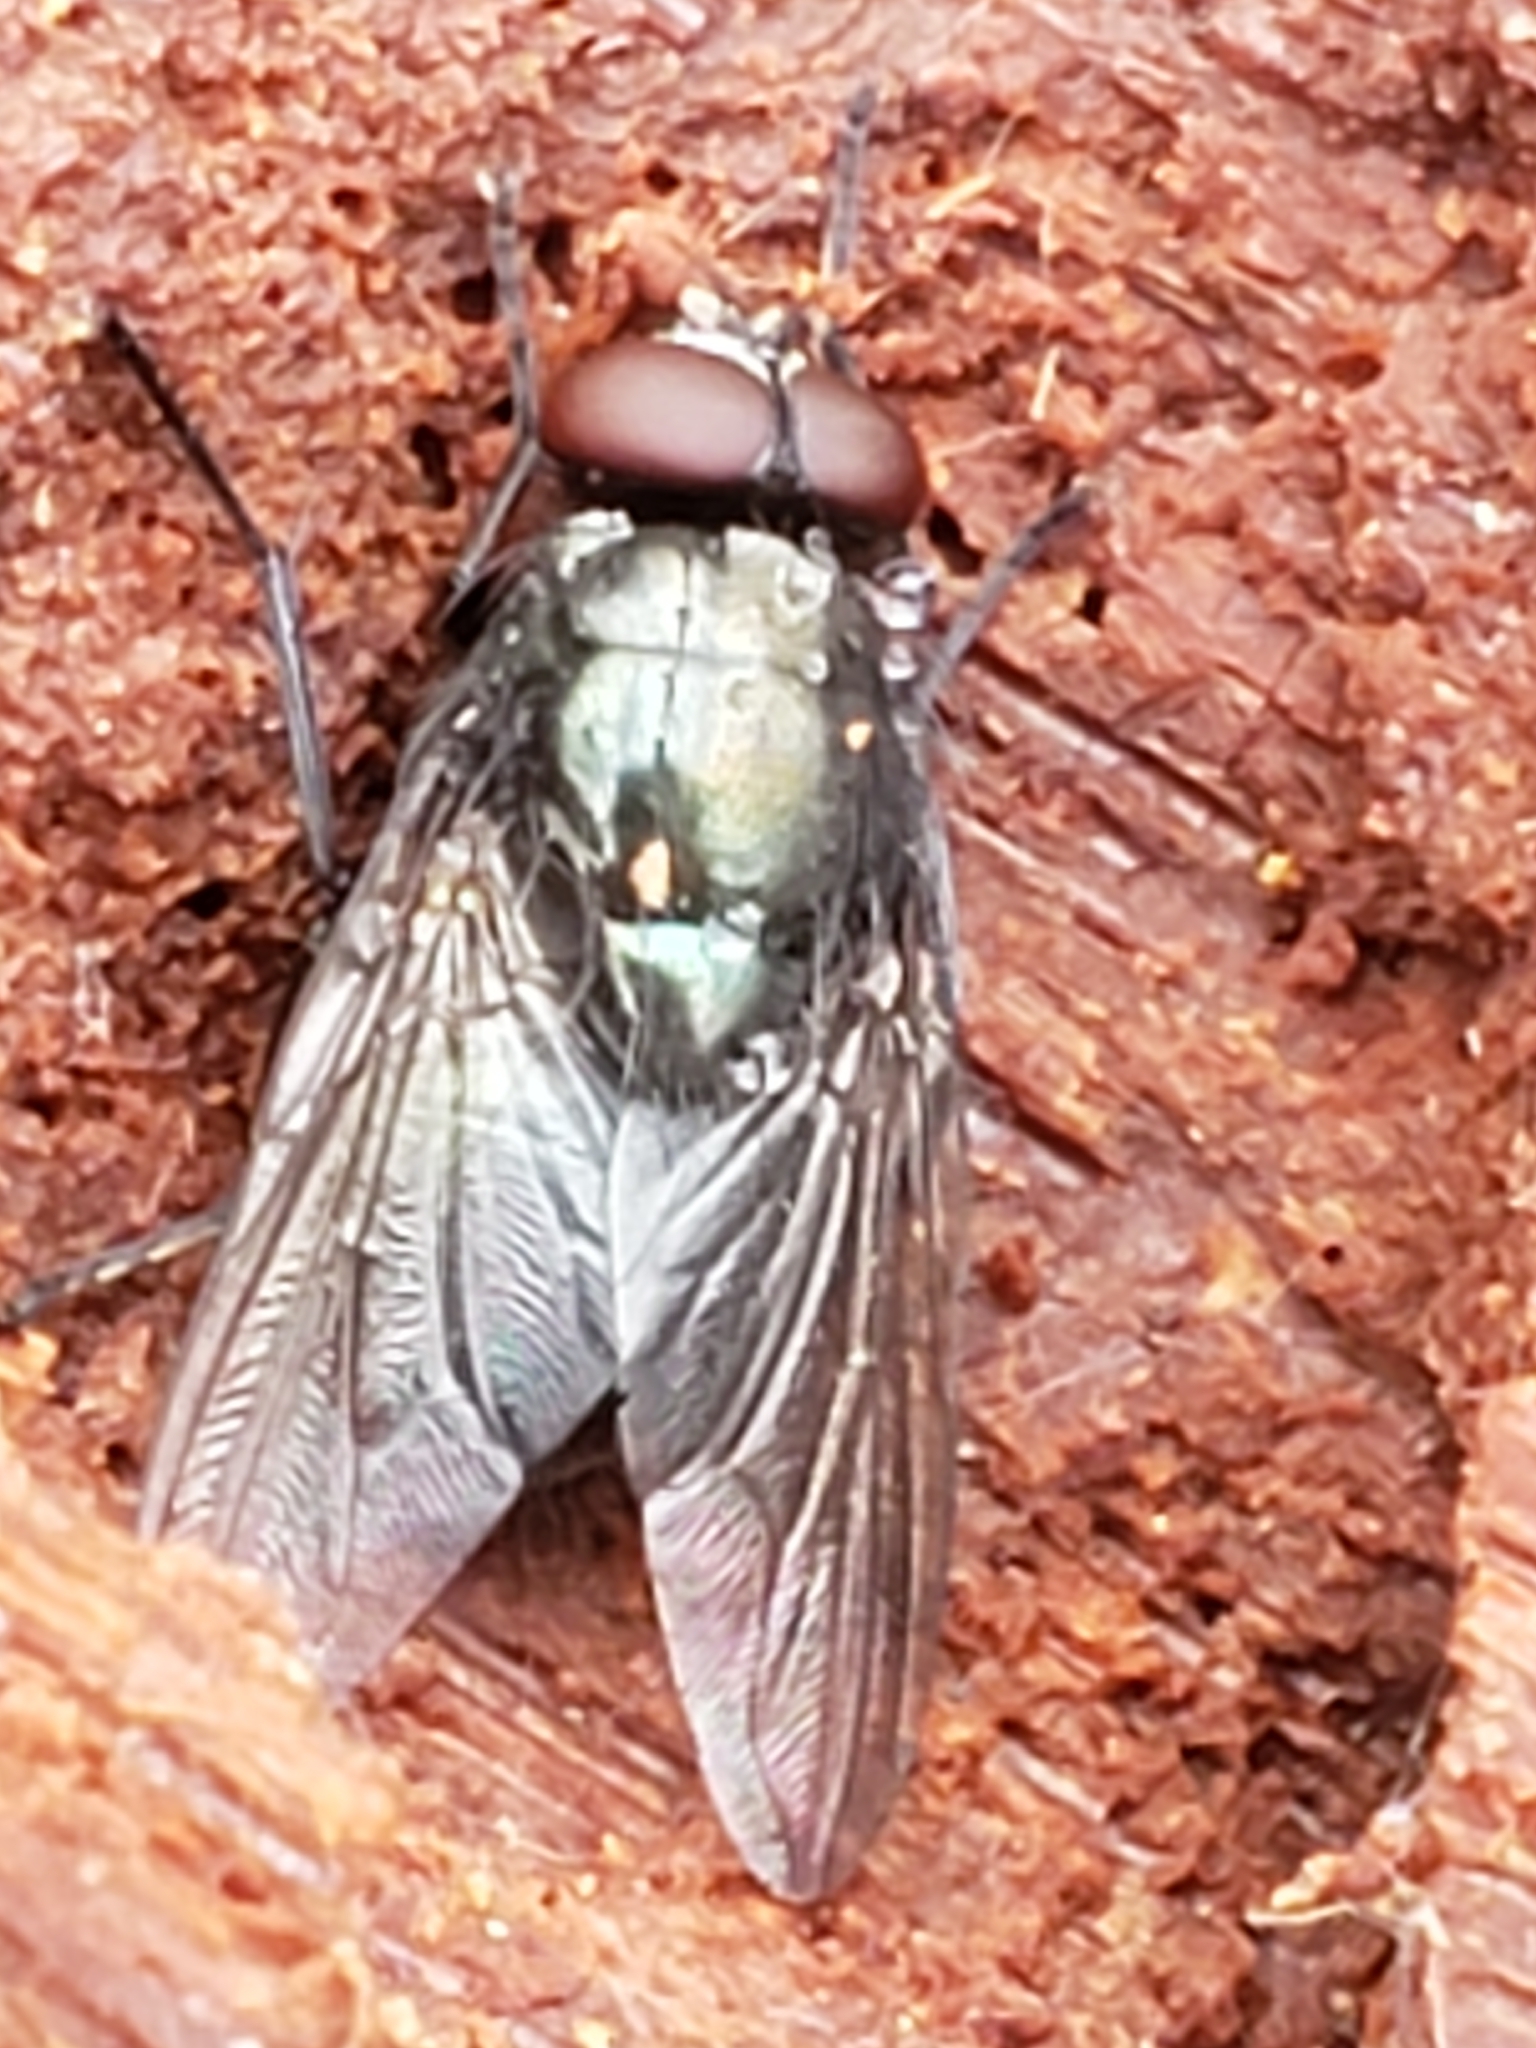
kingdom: Animalia
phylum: Arthropoda
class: Insecta
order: Diptera
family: Muscidae
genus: Eudasyphora
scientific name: Eudasyphora cyanicolor
